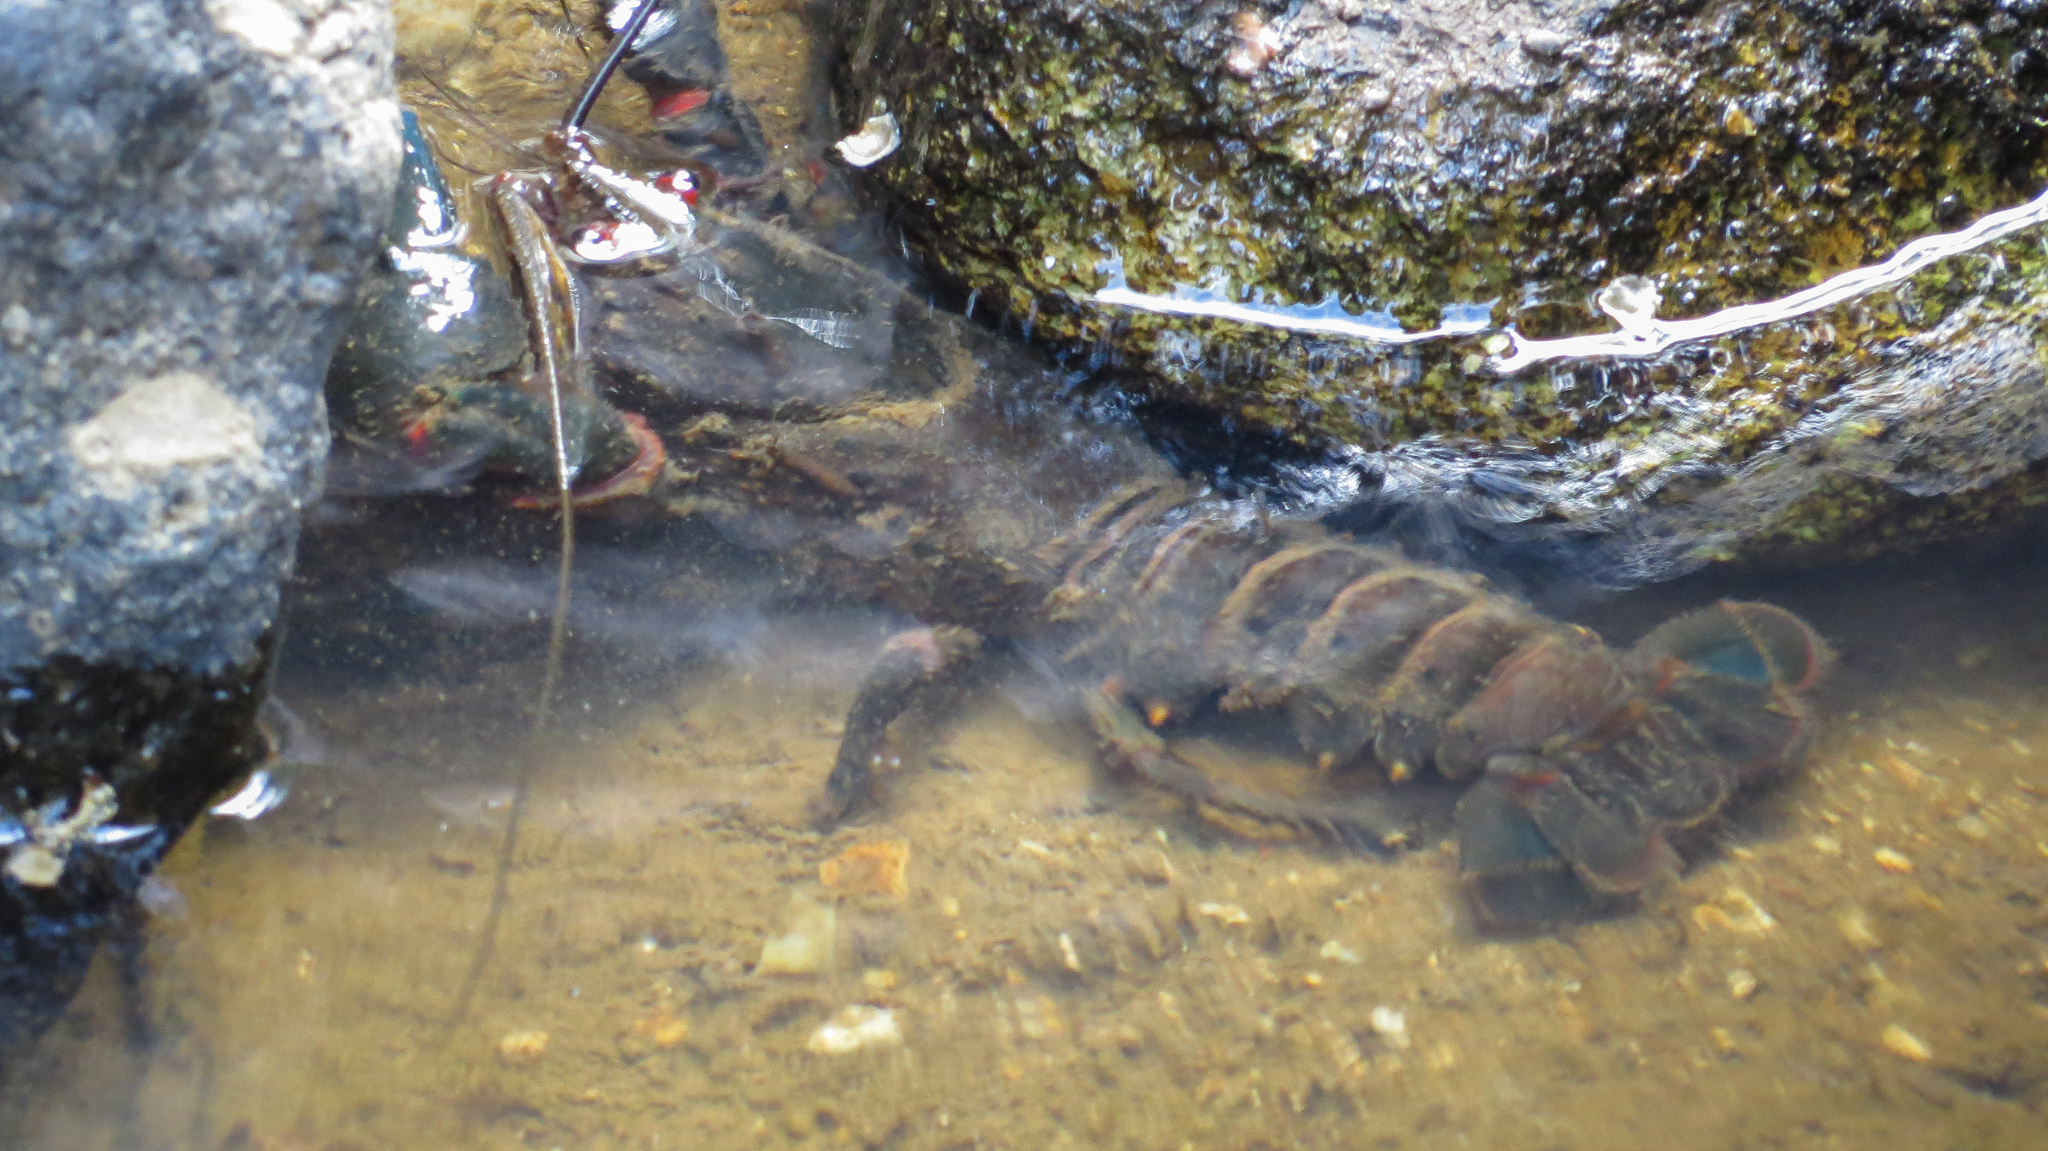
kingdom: Animalia
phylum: Arthropoda
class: Malacostraca
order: Decapoda
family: Parastacidae
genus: Euastacus
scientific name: Euastacus valentulus
